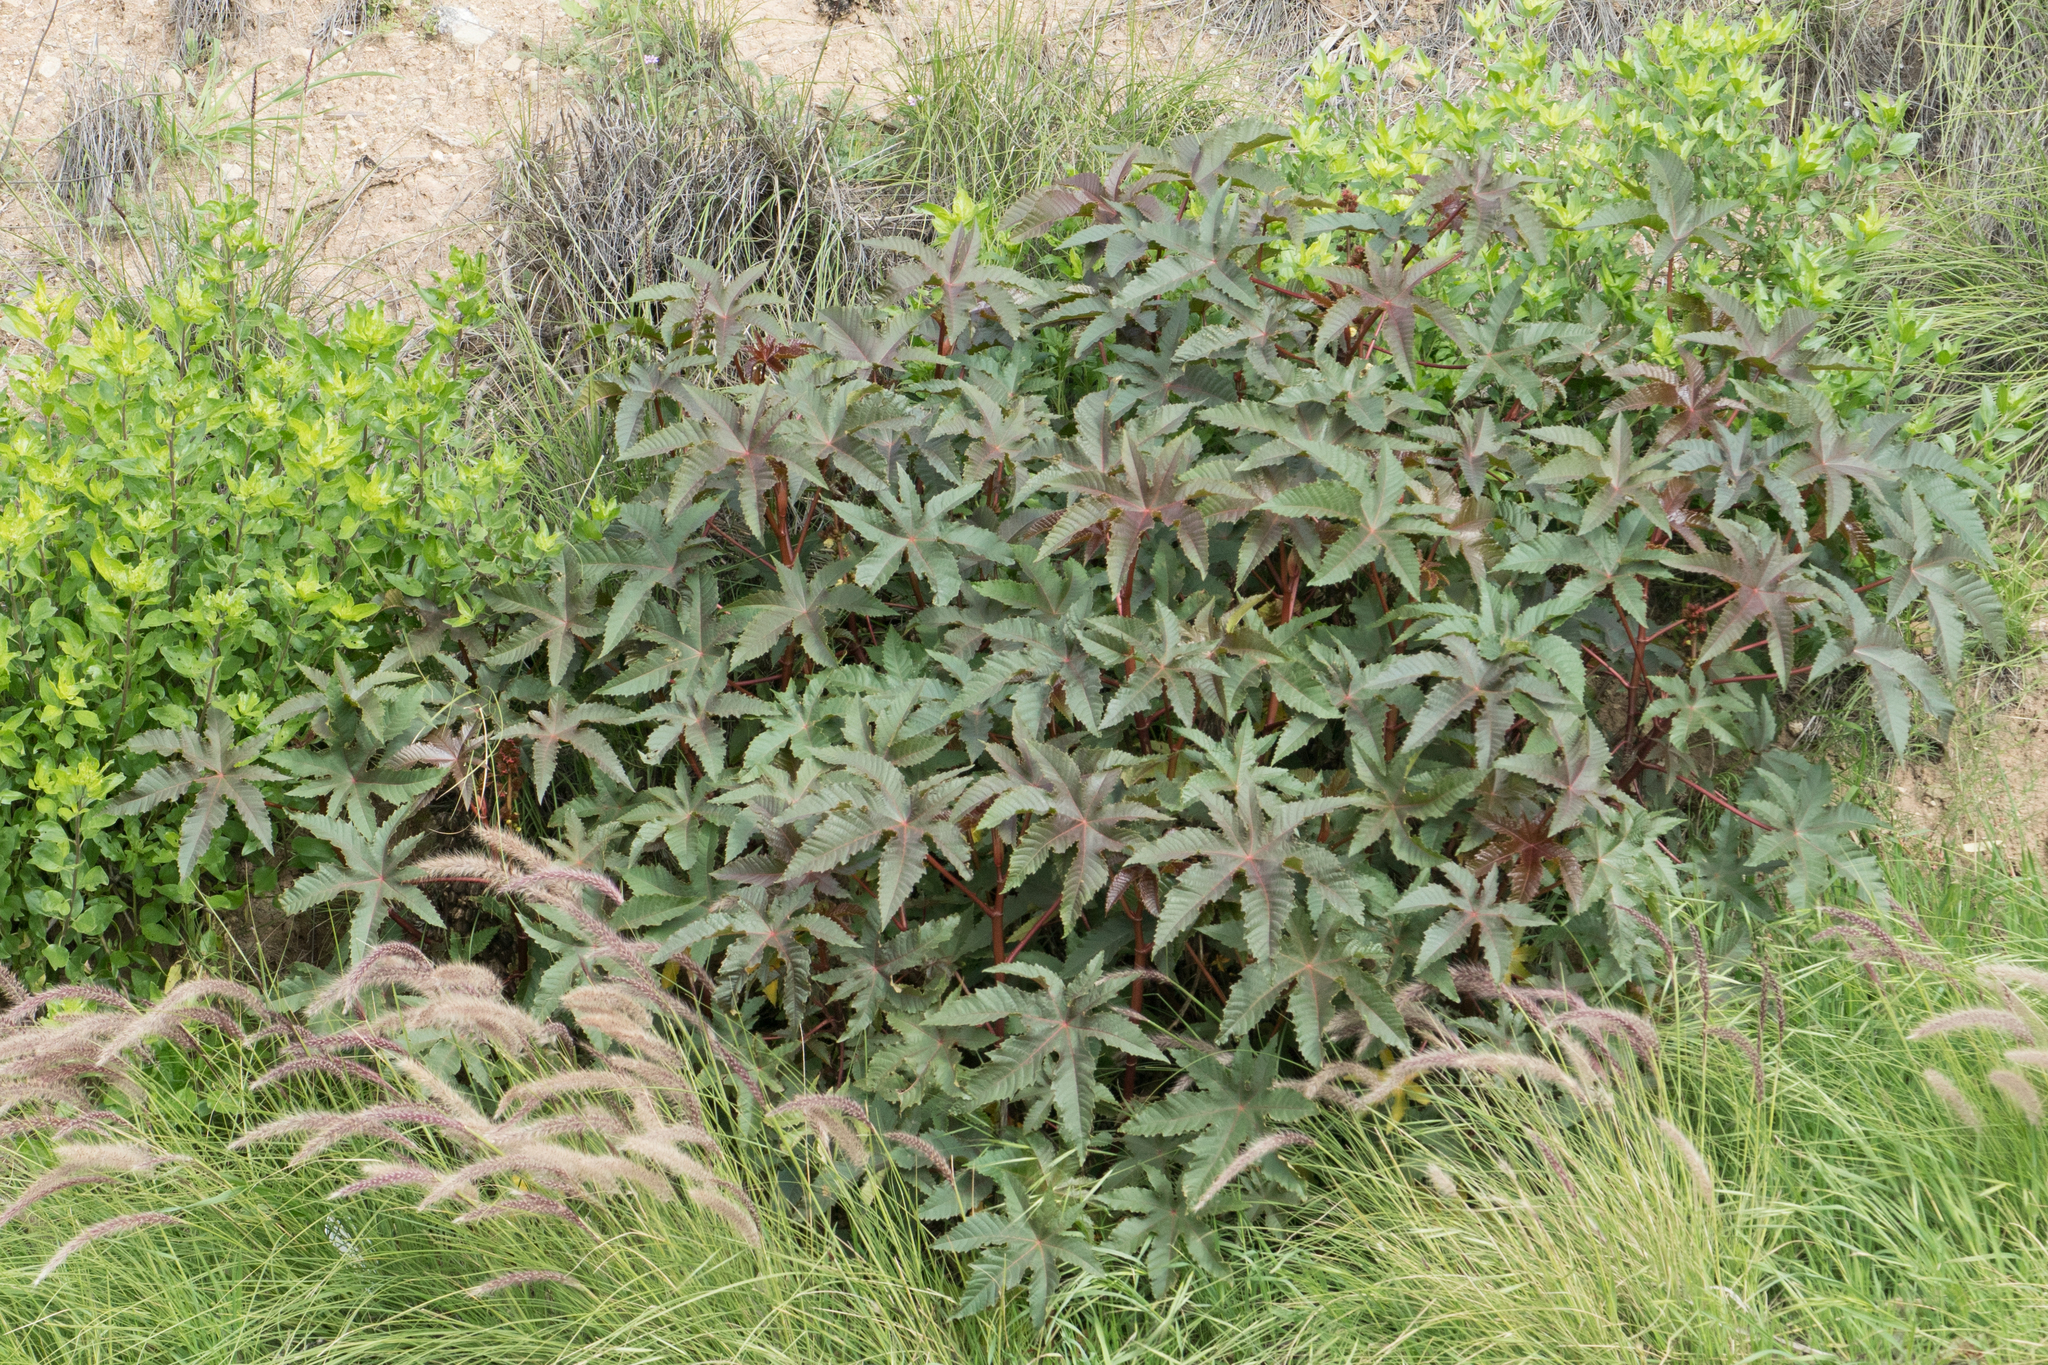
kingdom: Plantae
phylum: Tracheophyta
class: Magnoliopsida
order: Malpighiales
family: Euphorbiaceae
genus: Ricinus
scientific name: Ricinus communis
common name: Castor-oil-plant
